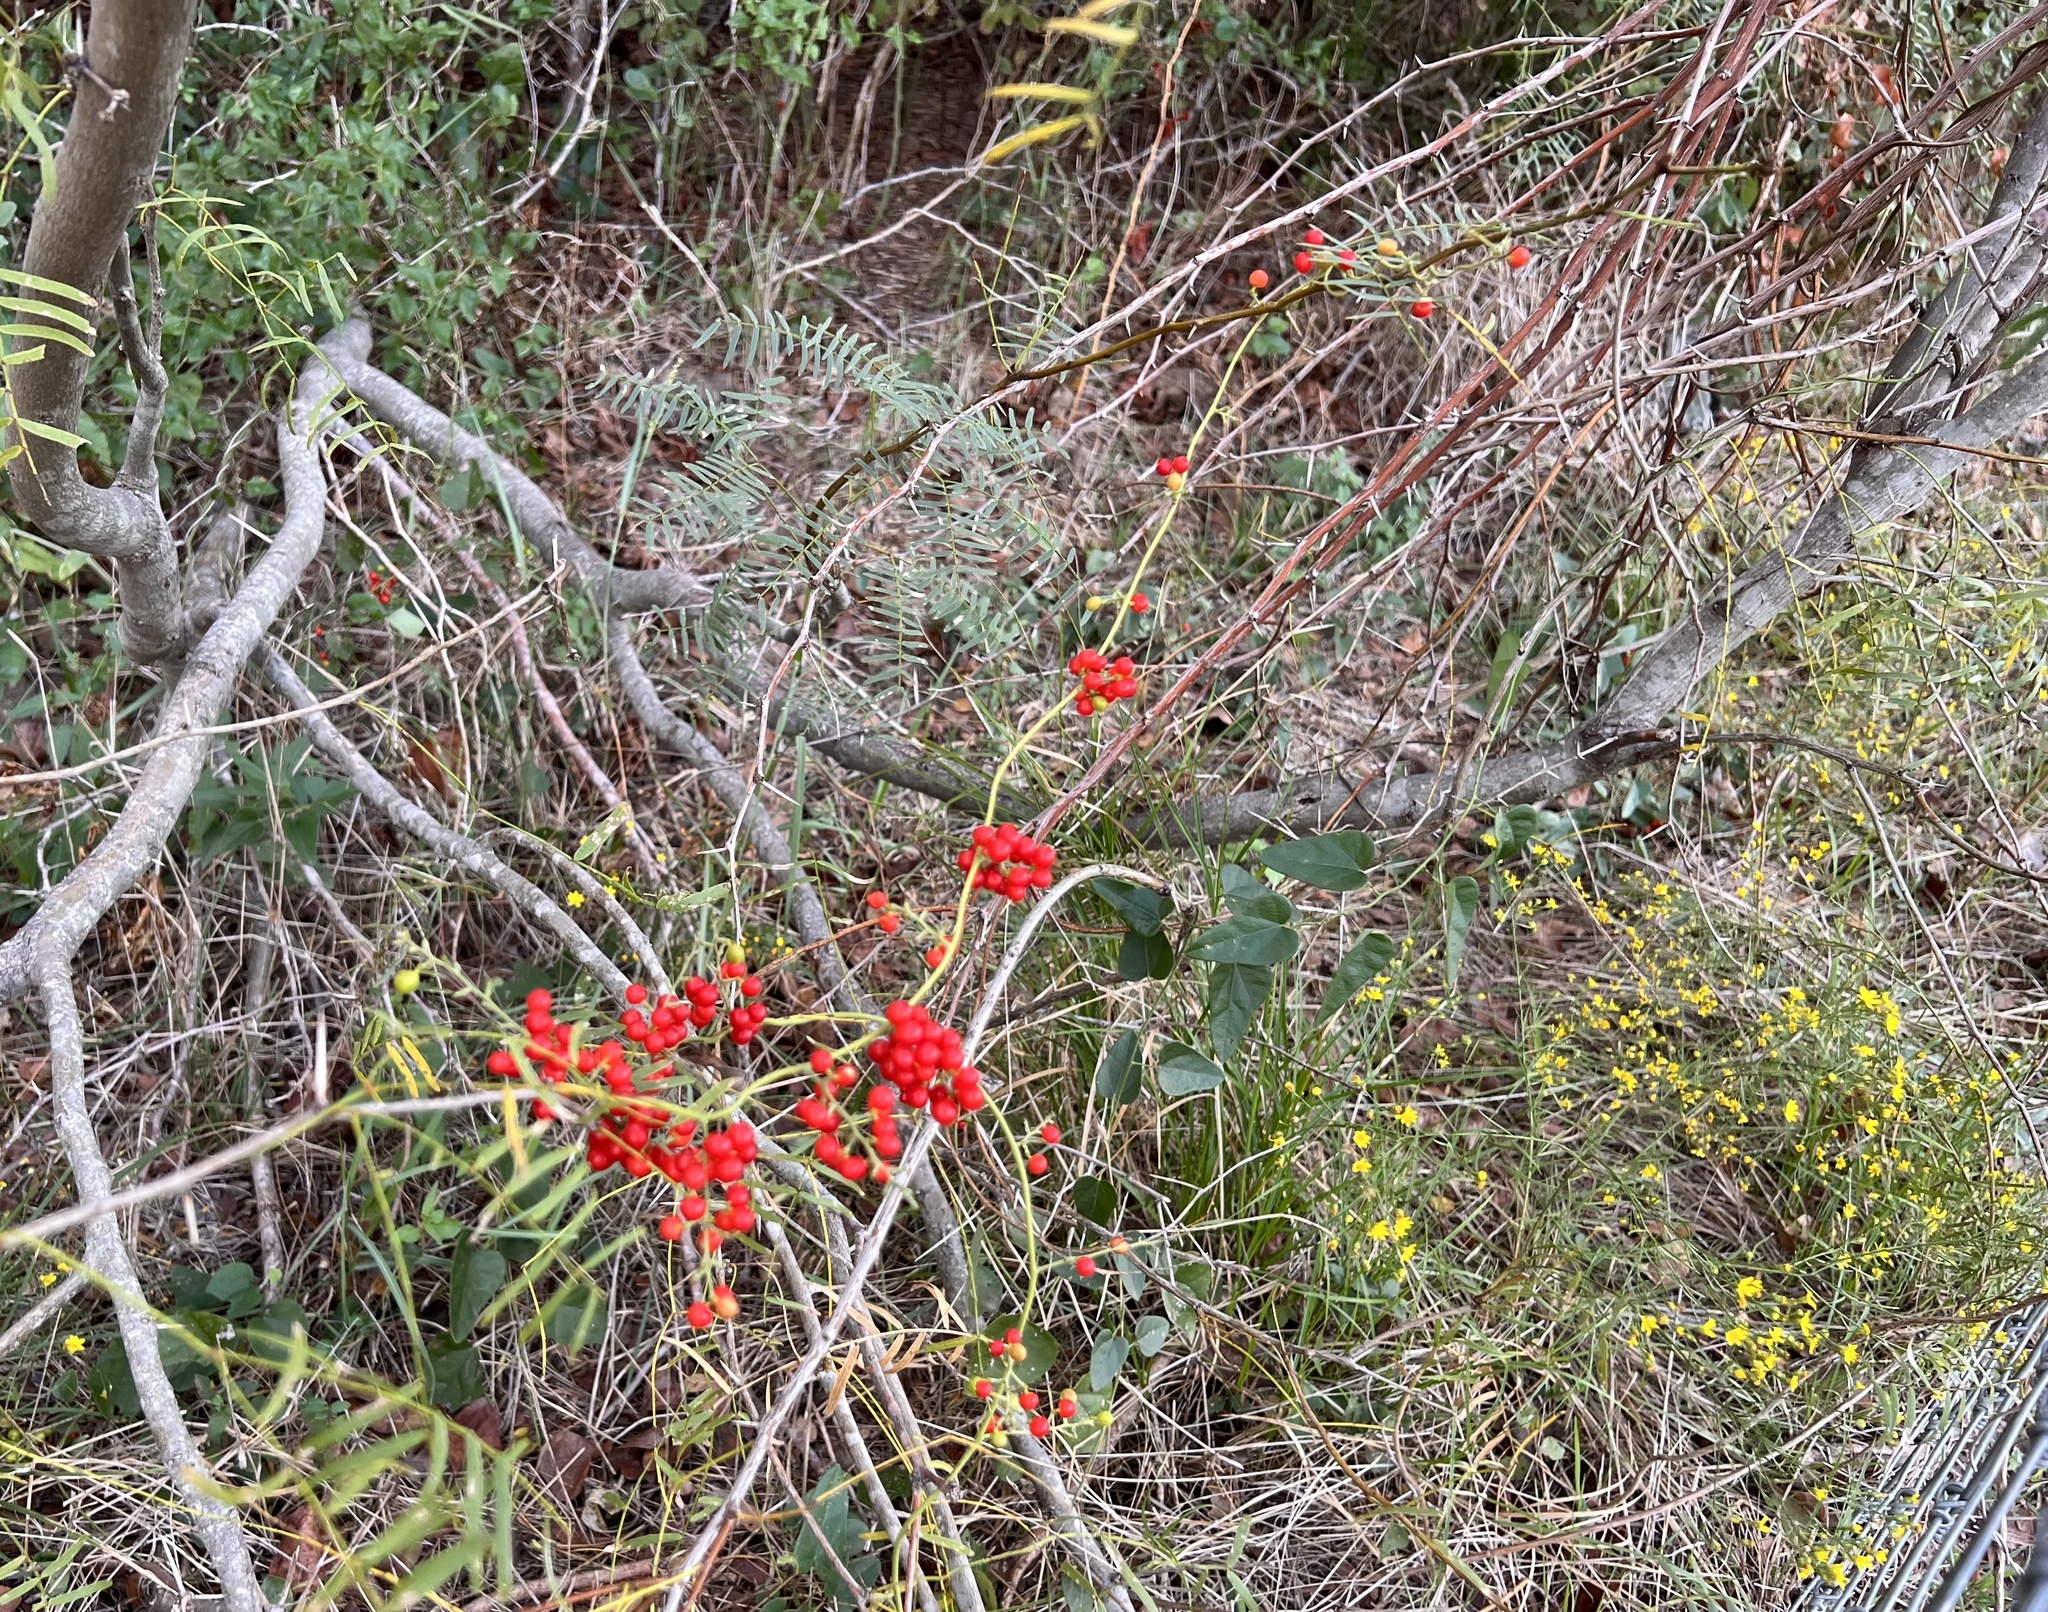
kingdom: Plantae
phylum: Tracheophyta
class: Magnoliopsida
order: Ranunculales
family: Menispermaceae
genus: Cocculus
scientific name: Cocculus carolinus
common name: Carolina moonseed
